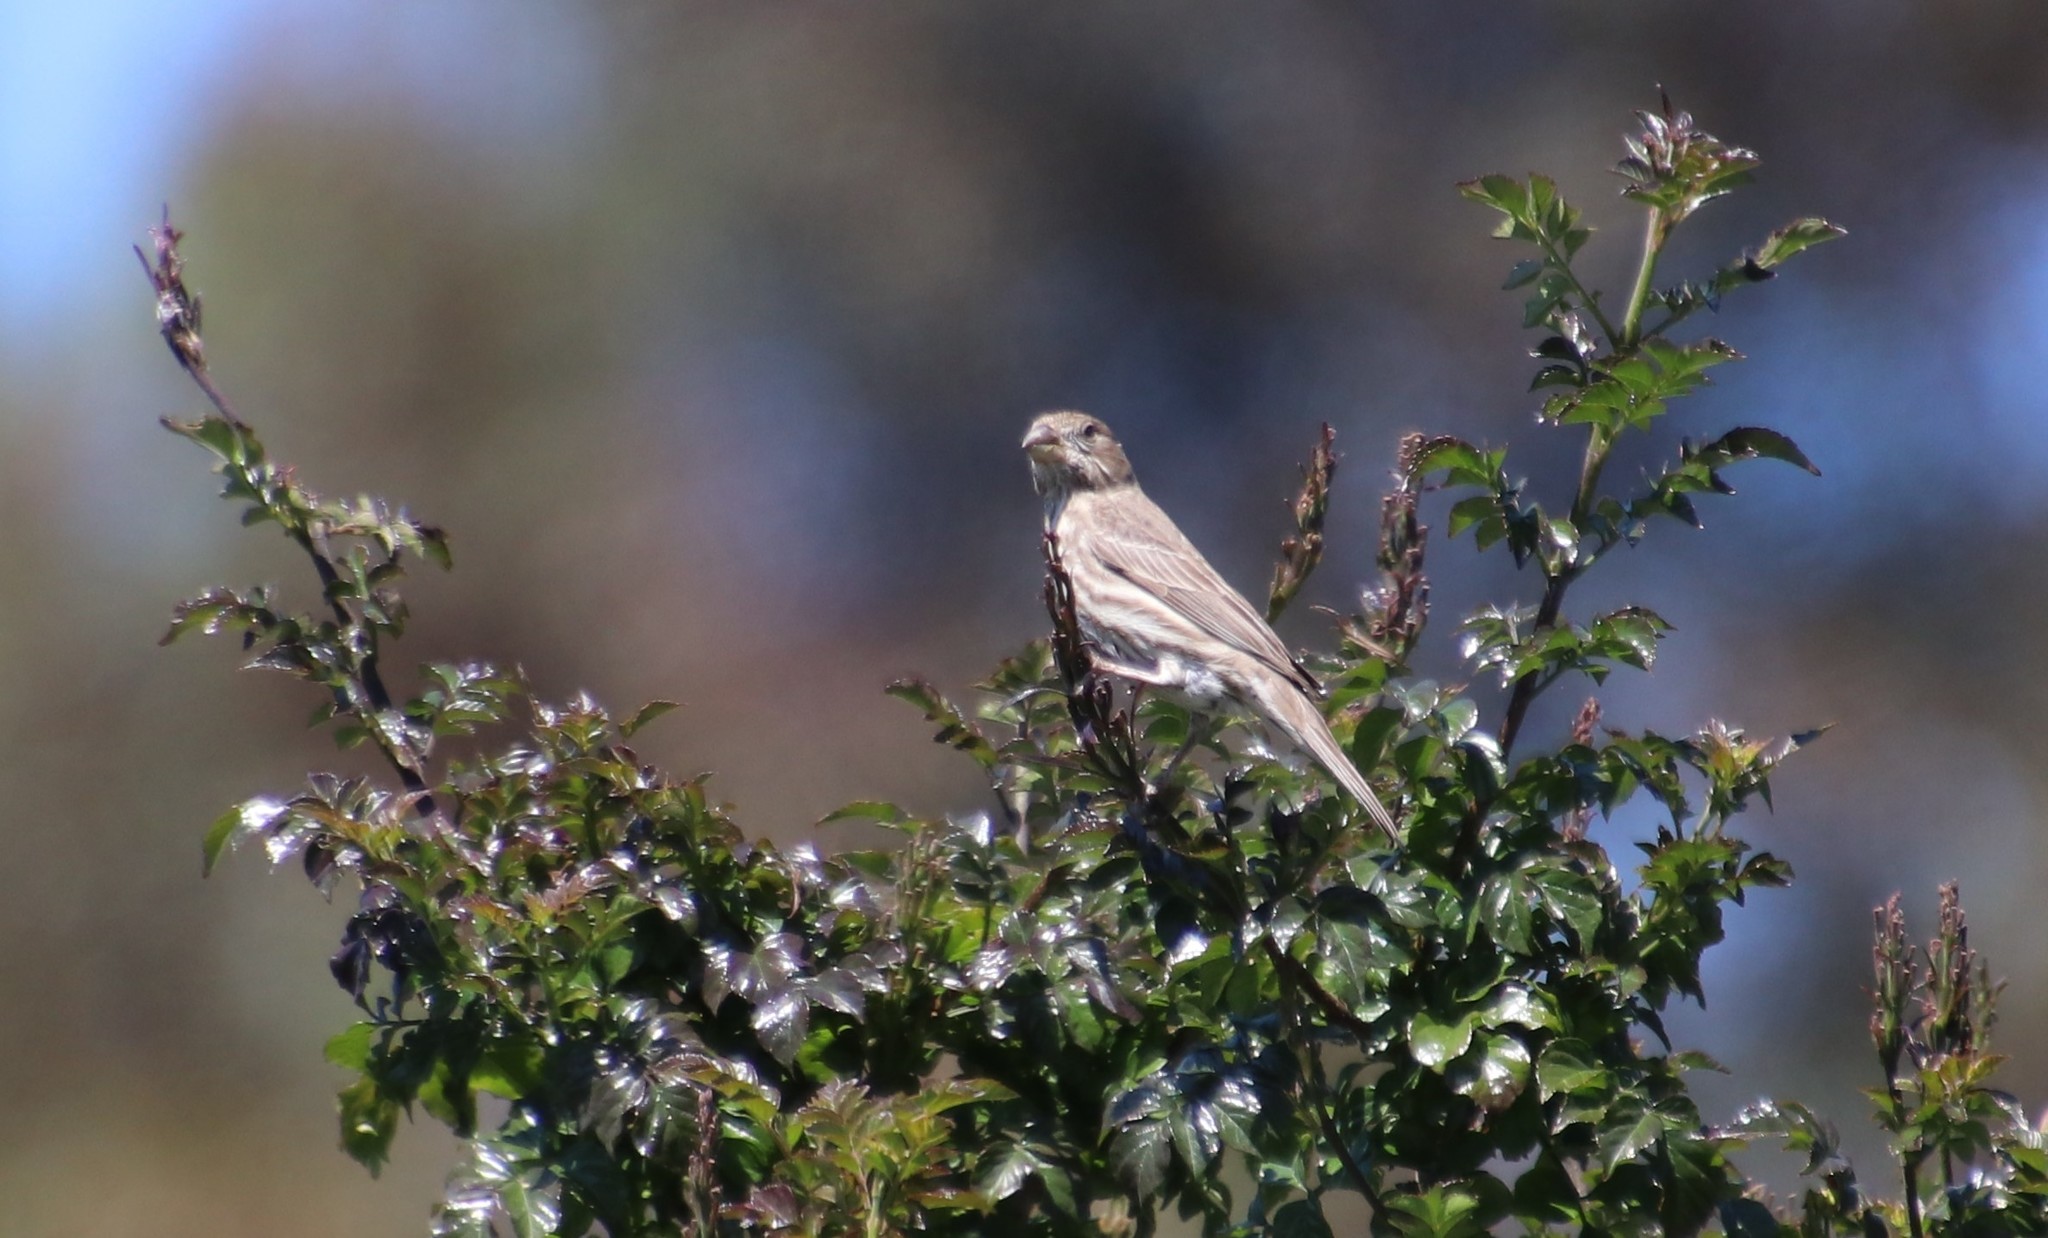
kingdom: Animalia
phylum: Chordata
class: Aves
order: Passeriformes
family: Fringillidae
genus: Haemorhous
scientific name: Haemorhous mexicanus
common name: House finch
